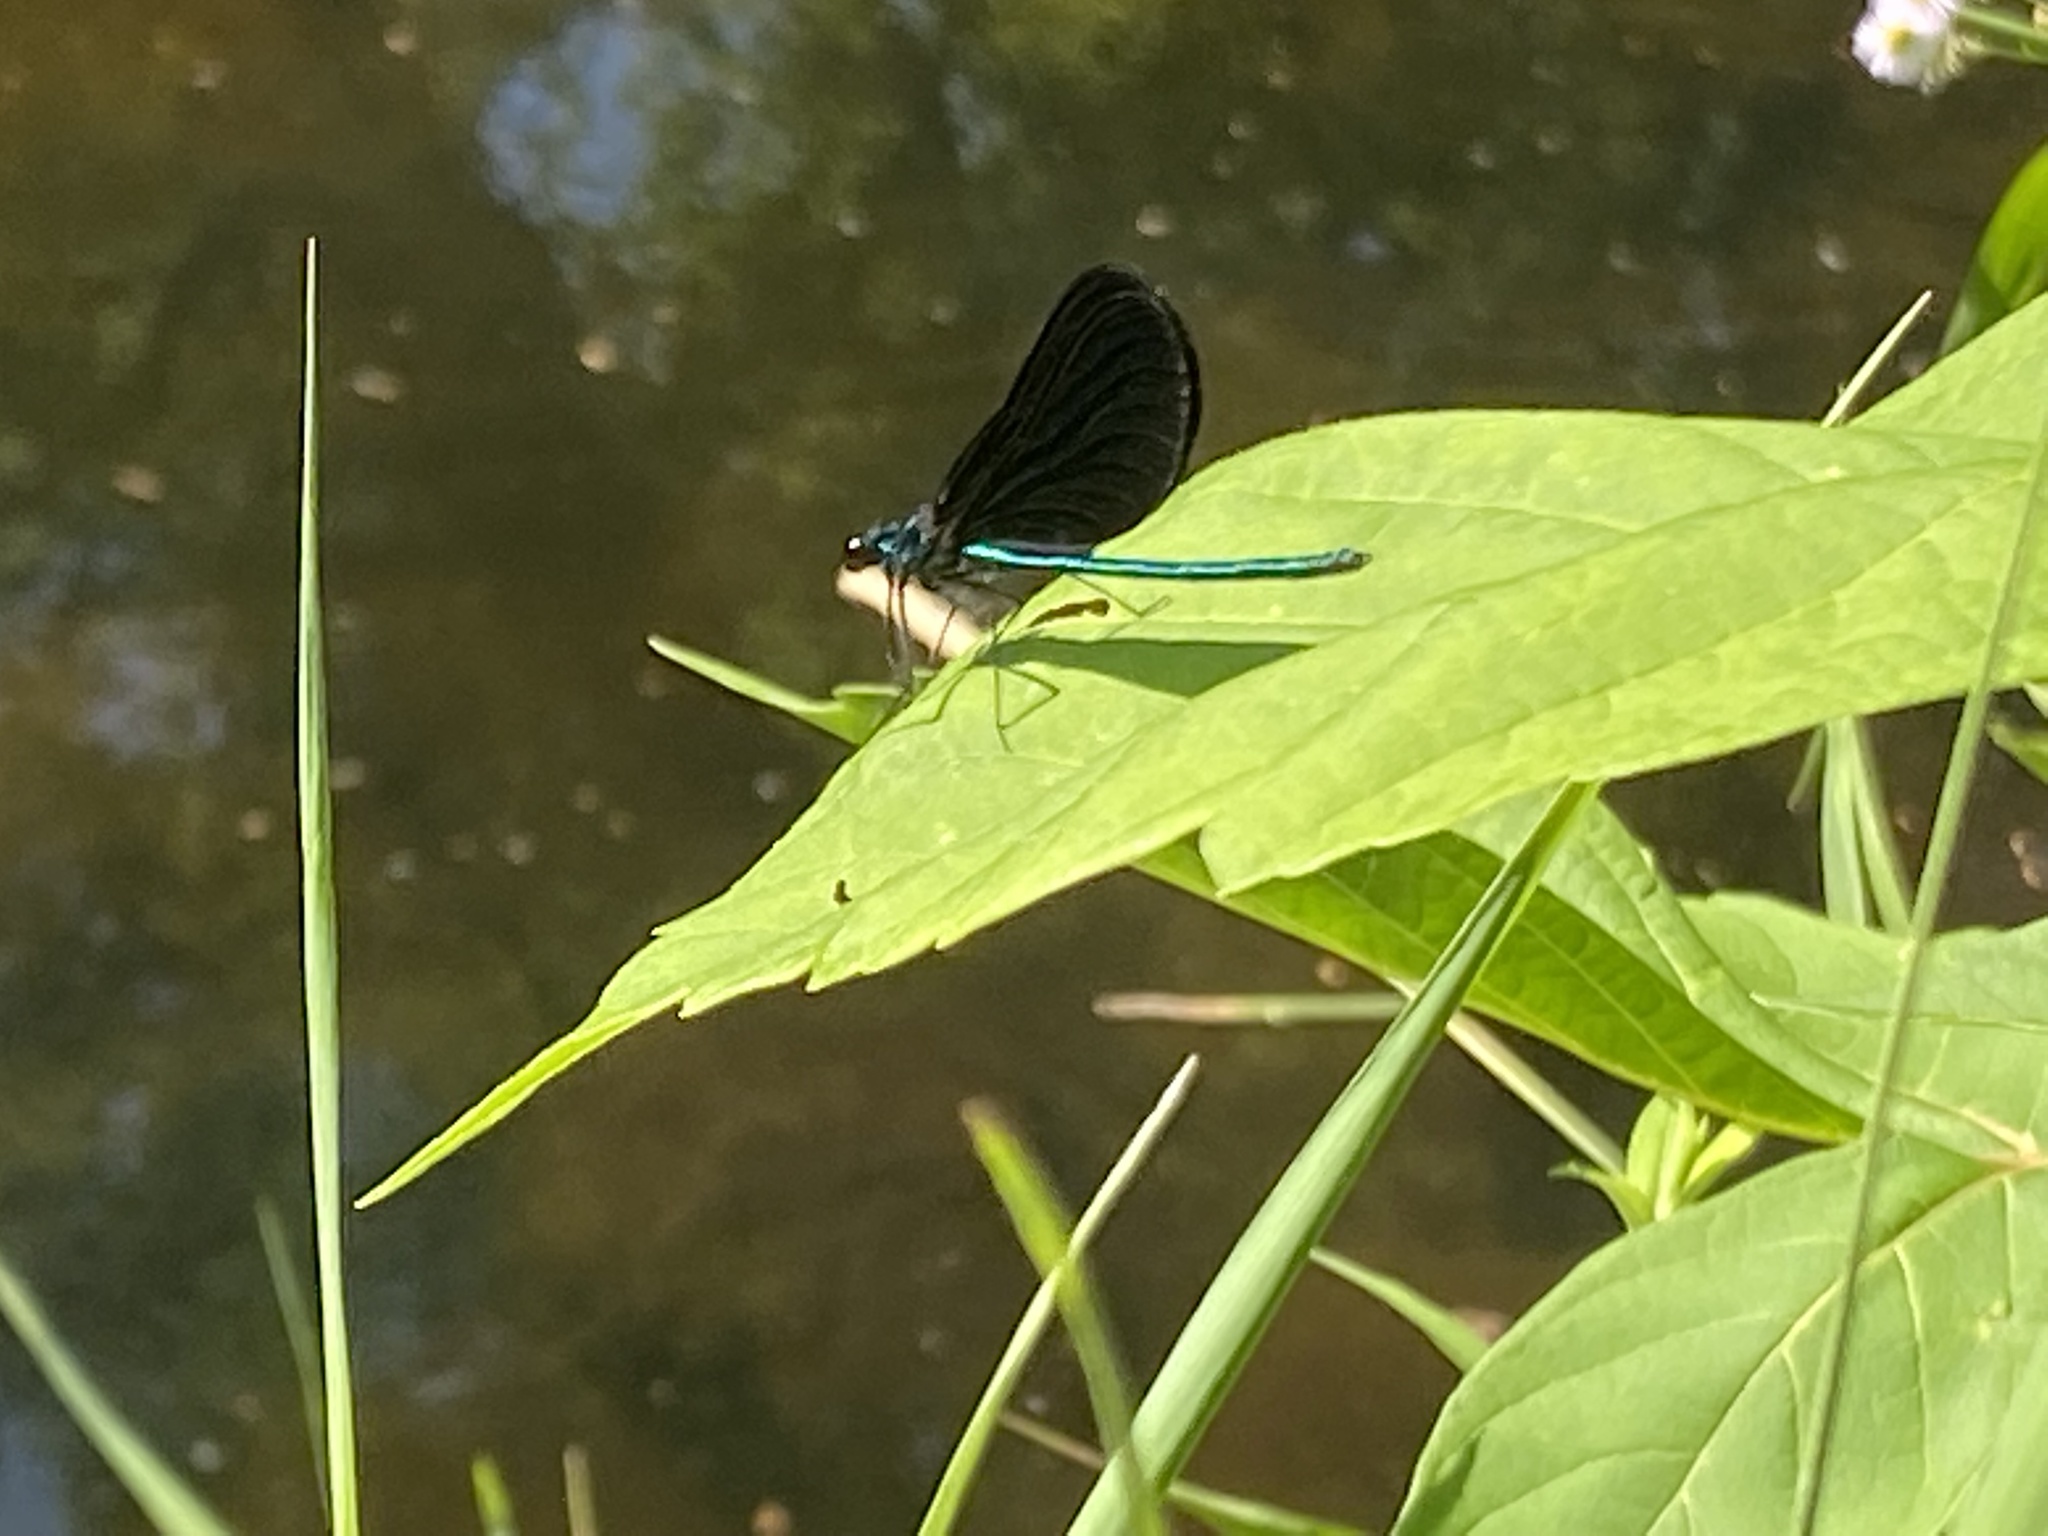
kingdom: Animalia
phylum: Arthropoda
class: Insecta
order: Odonata
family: Calopterygidae
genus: Calopteryx
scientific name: Calopteryx maculata
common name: Ebony jewelwing
